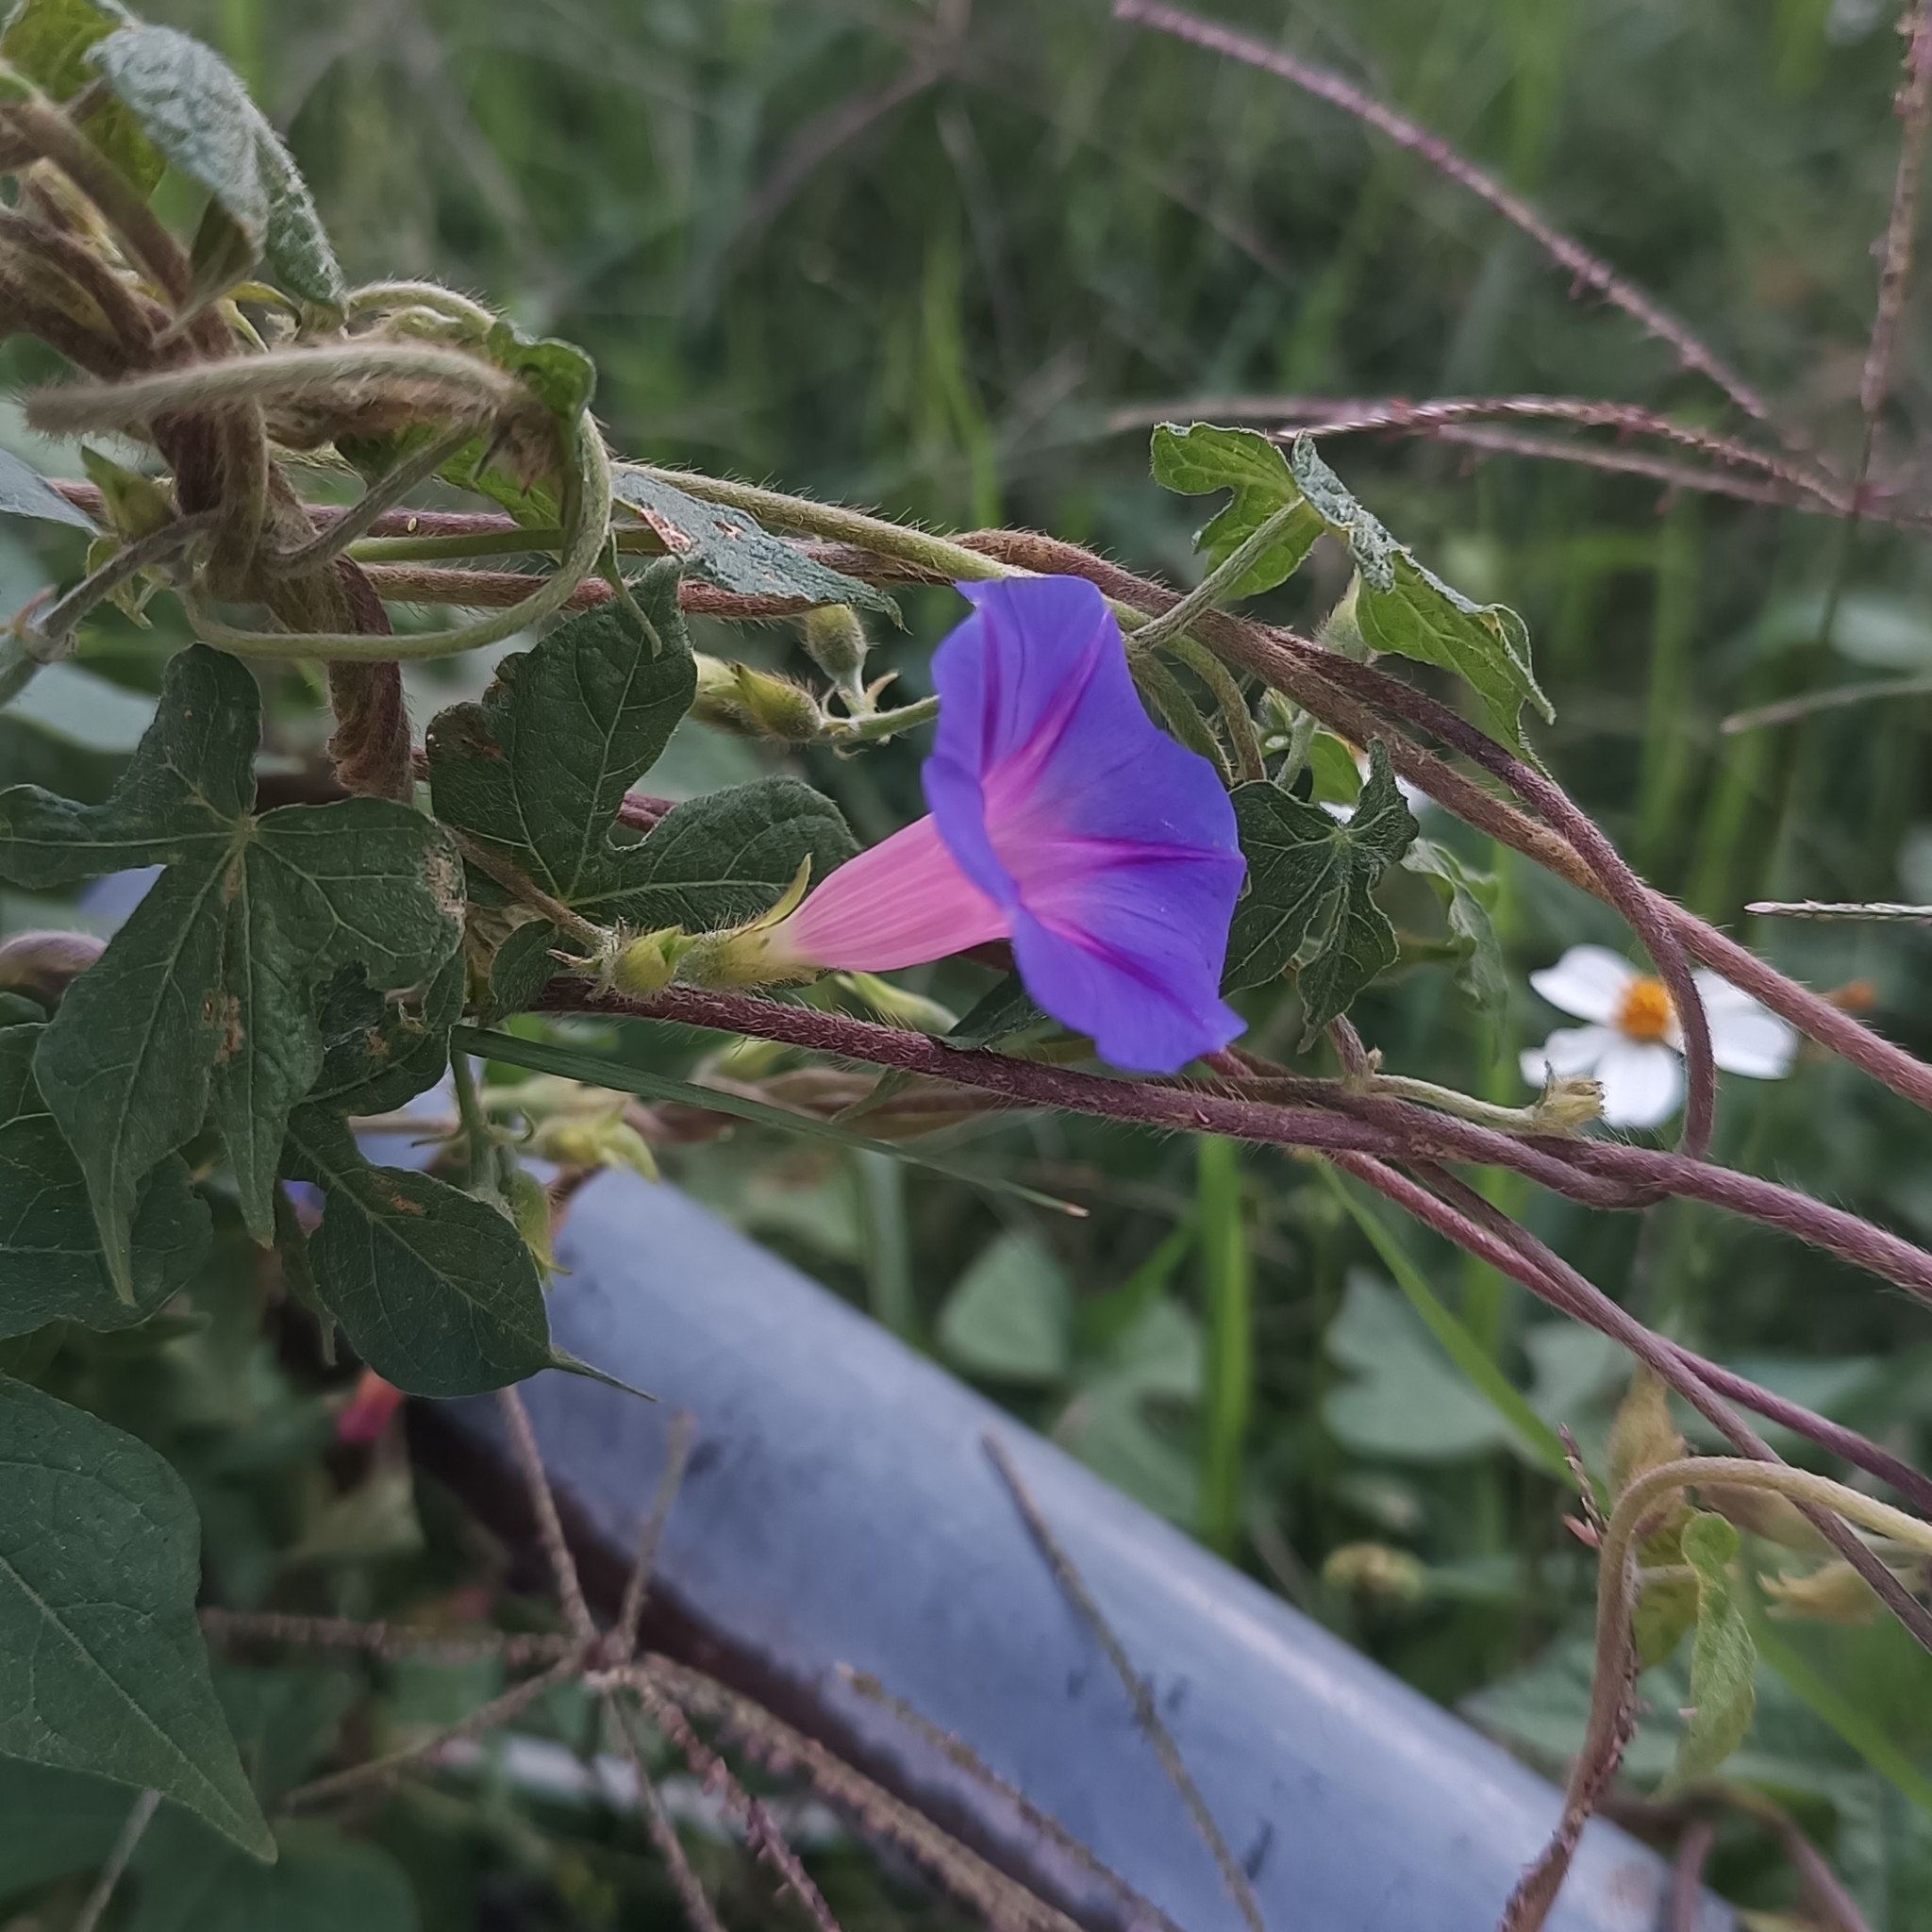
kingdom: Plantae
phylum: Tracheophyta
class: Magnoliopsida
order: Solanales
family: Convolvulaceae
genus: Ipomoea
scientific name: Ipomoea purpurea
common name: Common morning-glory
